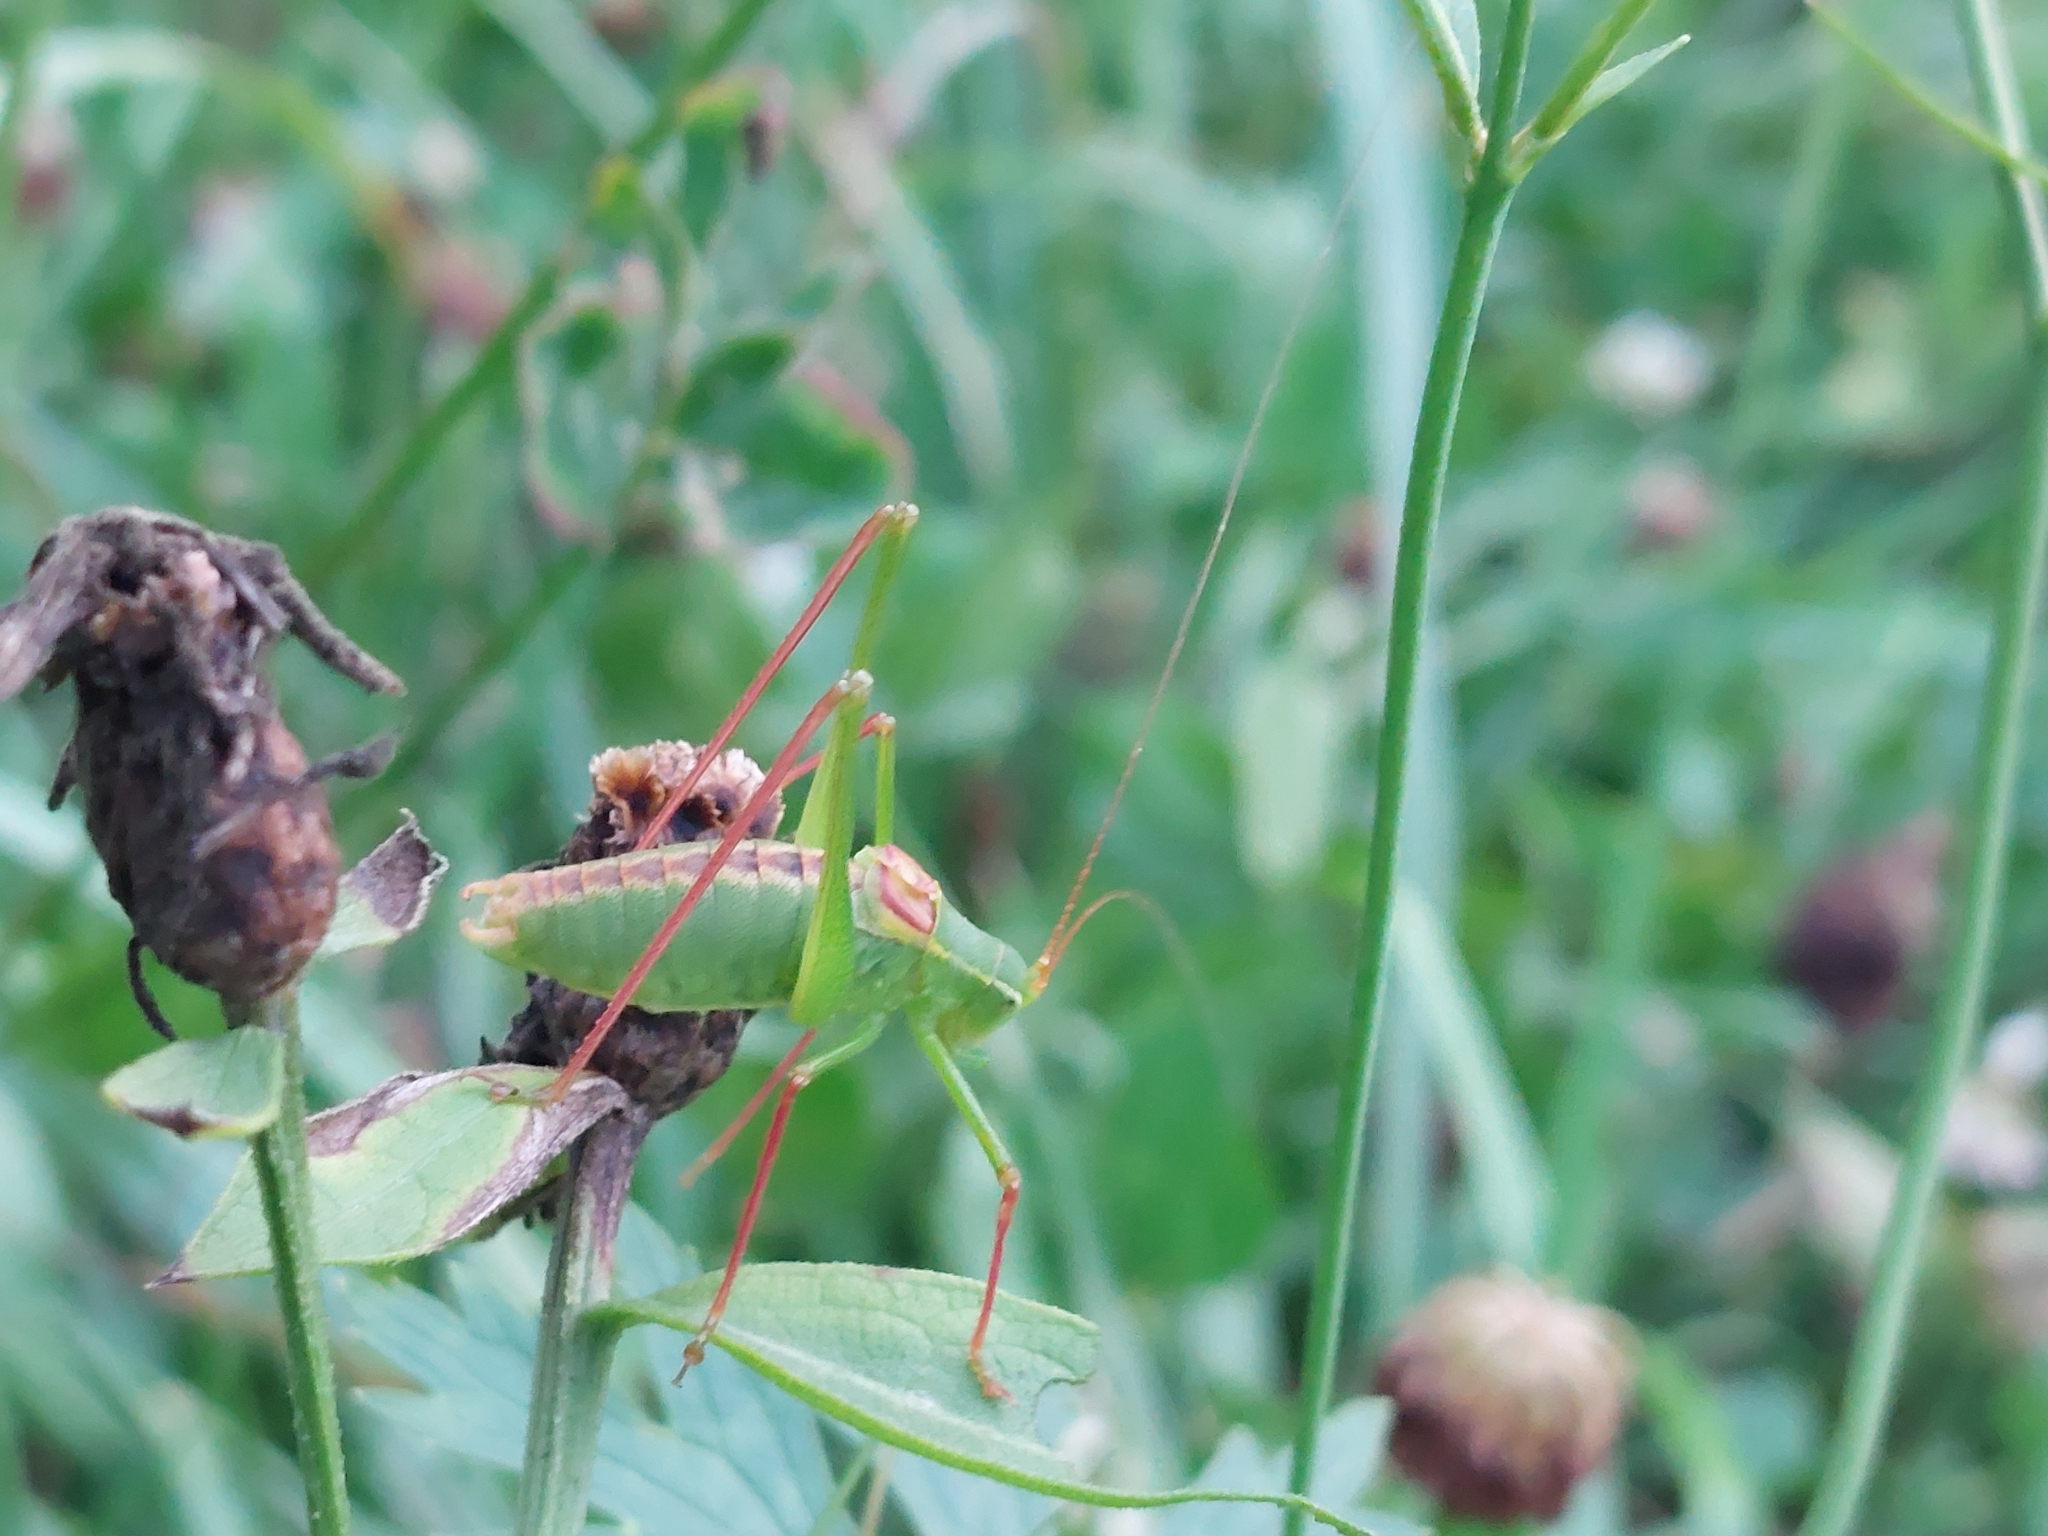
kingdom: Animalia
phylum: Arthropoda
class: Insecta
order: Orthoptera
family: Tettigoniidae
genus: Leptophyes
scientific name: Leptophyes laticauda
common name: Long-tailed speckled bush-cricket
